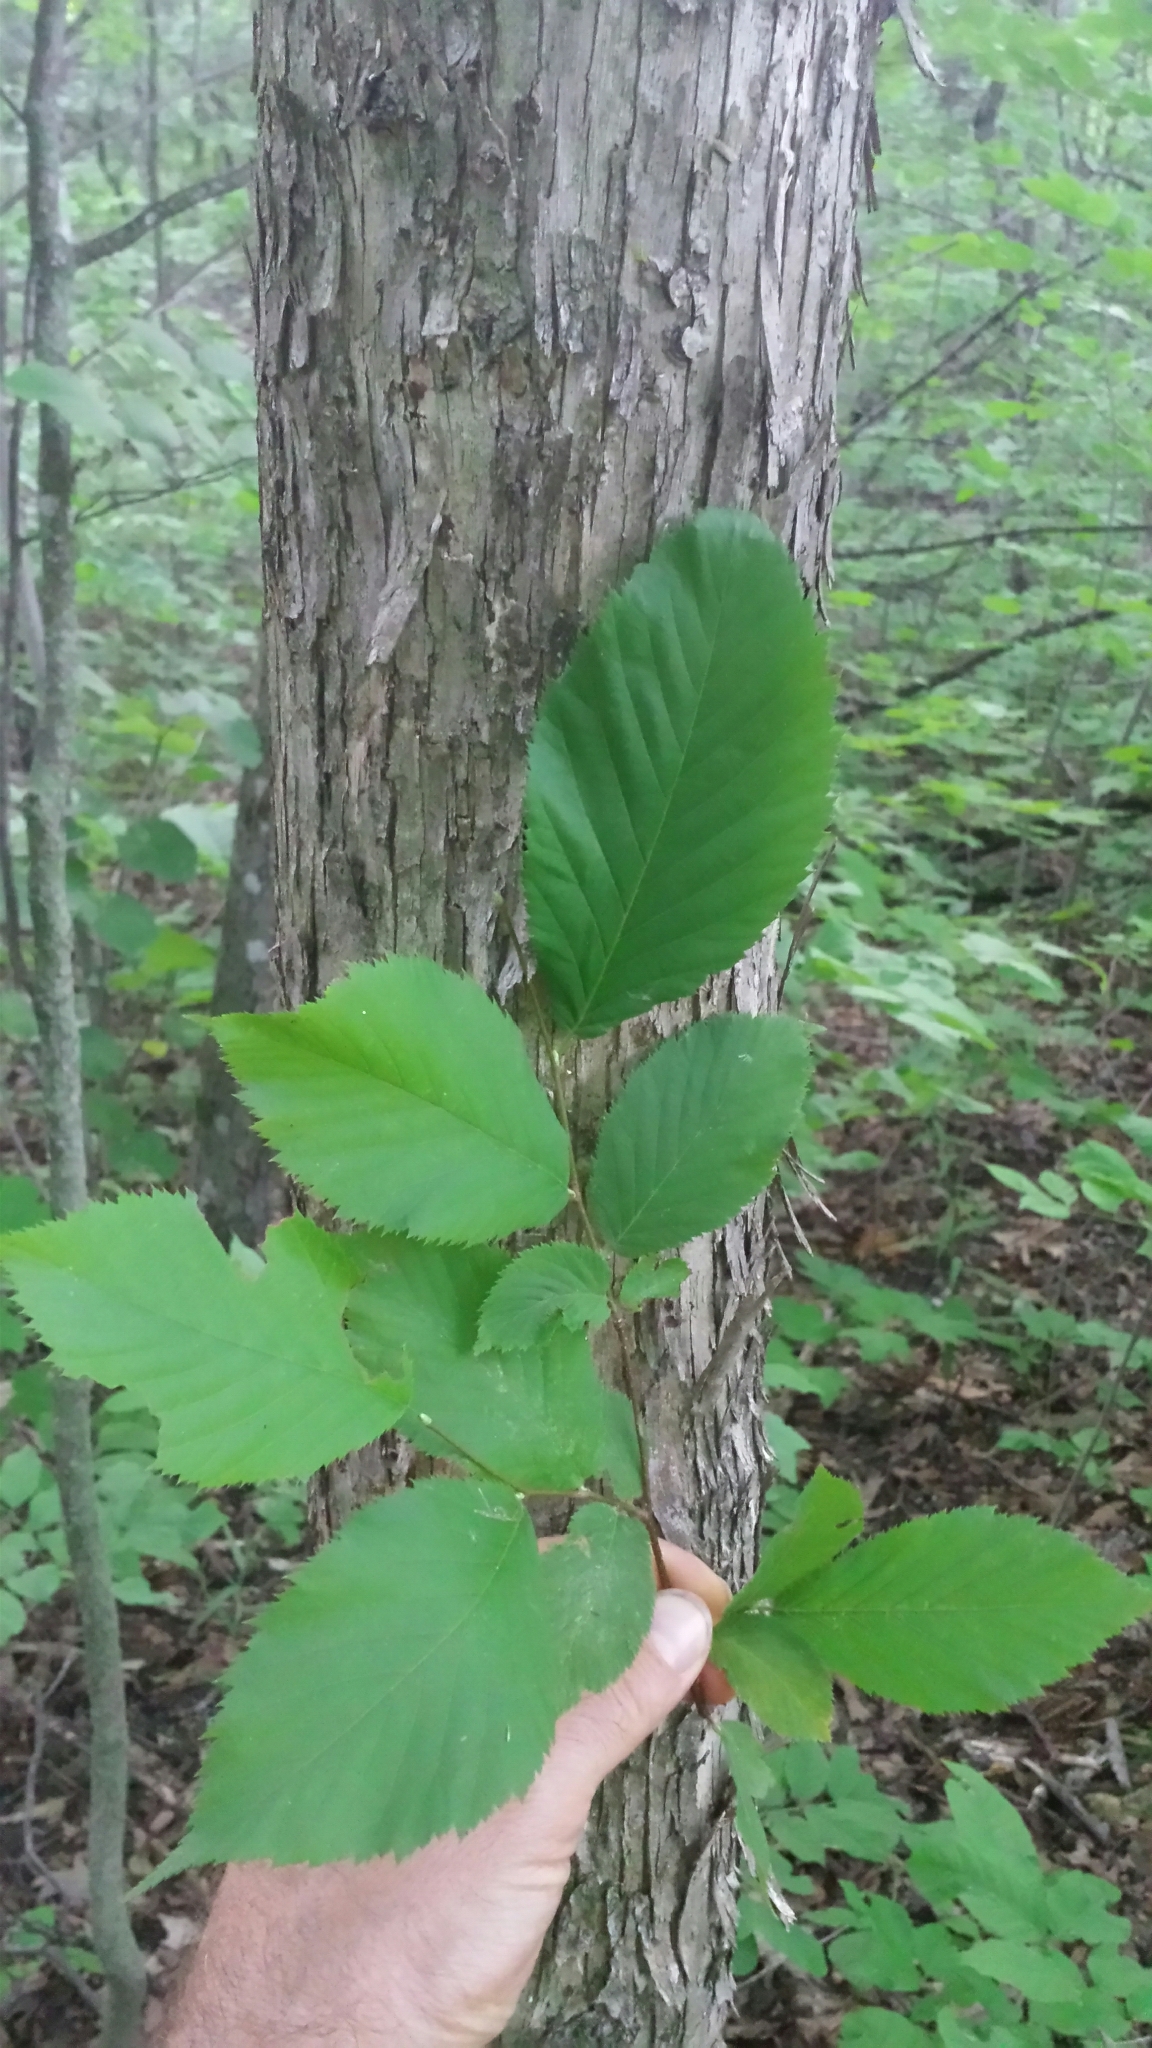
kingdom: Plantae
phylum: Tracheophyta
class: Magnoliopsida
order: Fagales
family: Betulaceae
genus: Ostrya
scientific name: Ostrya virginiana
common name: Ironwood
